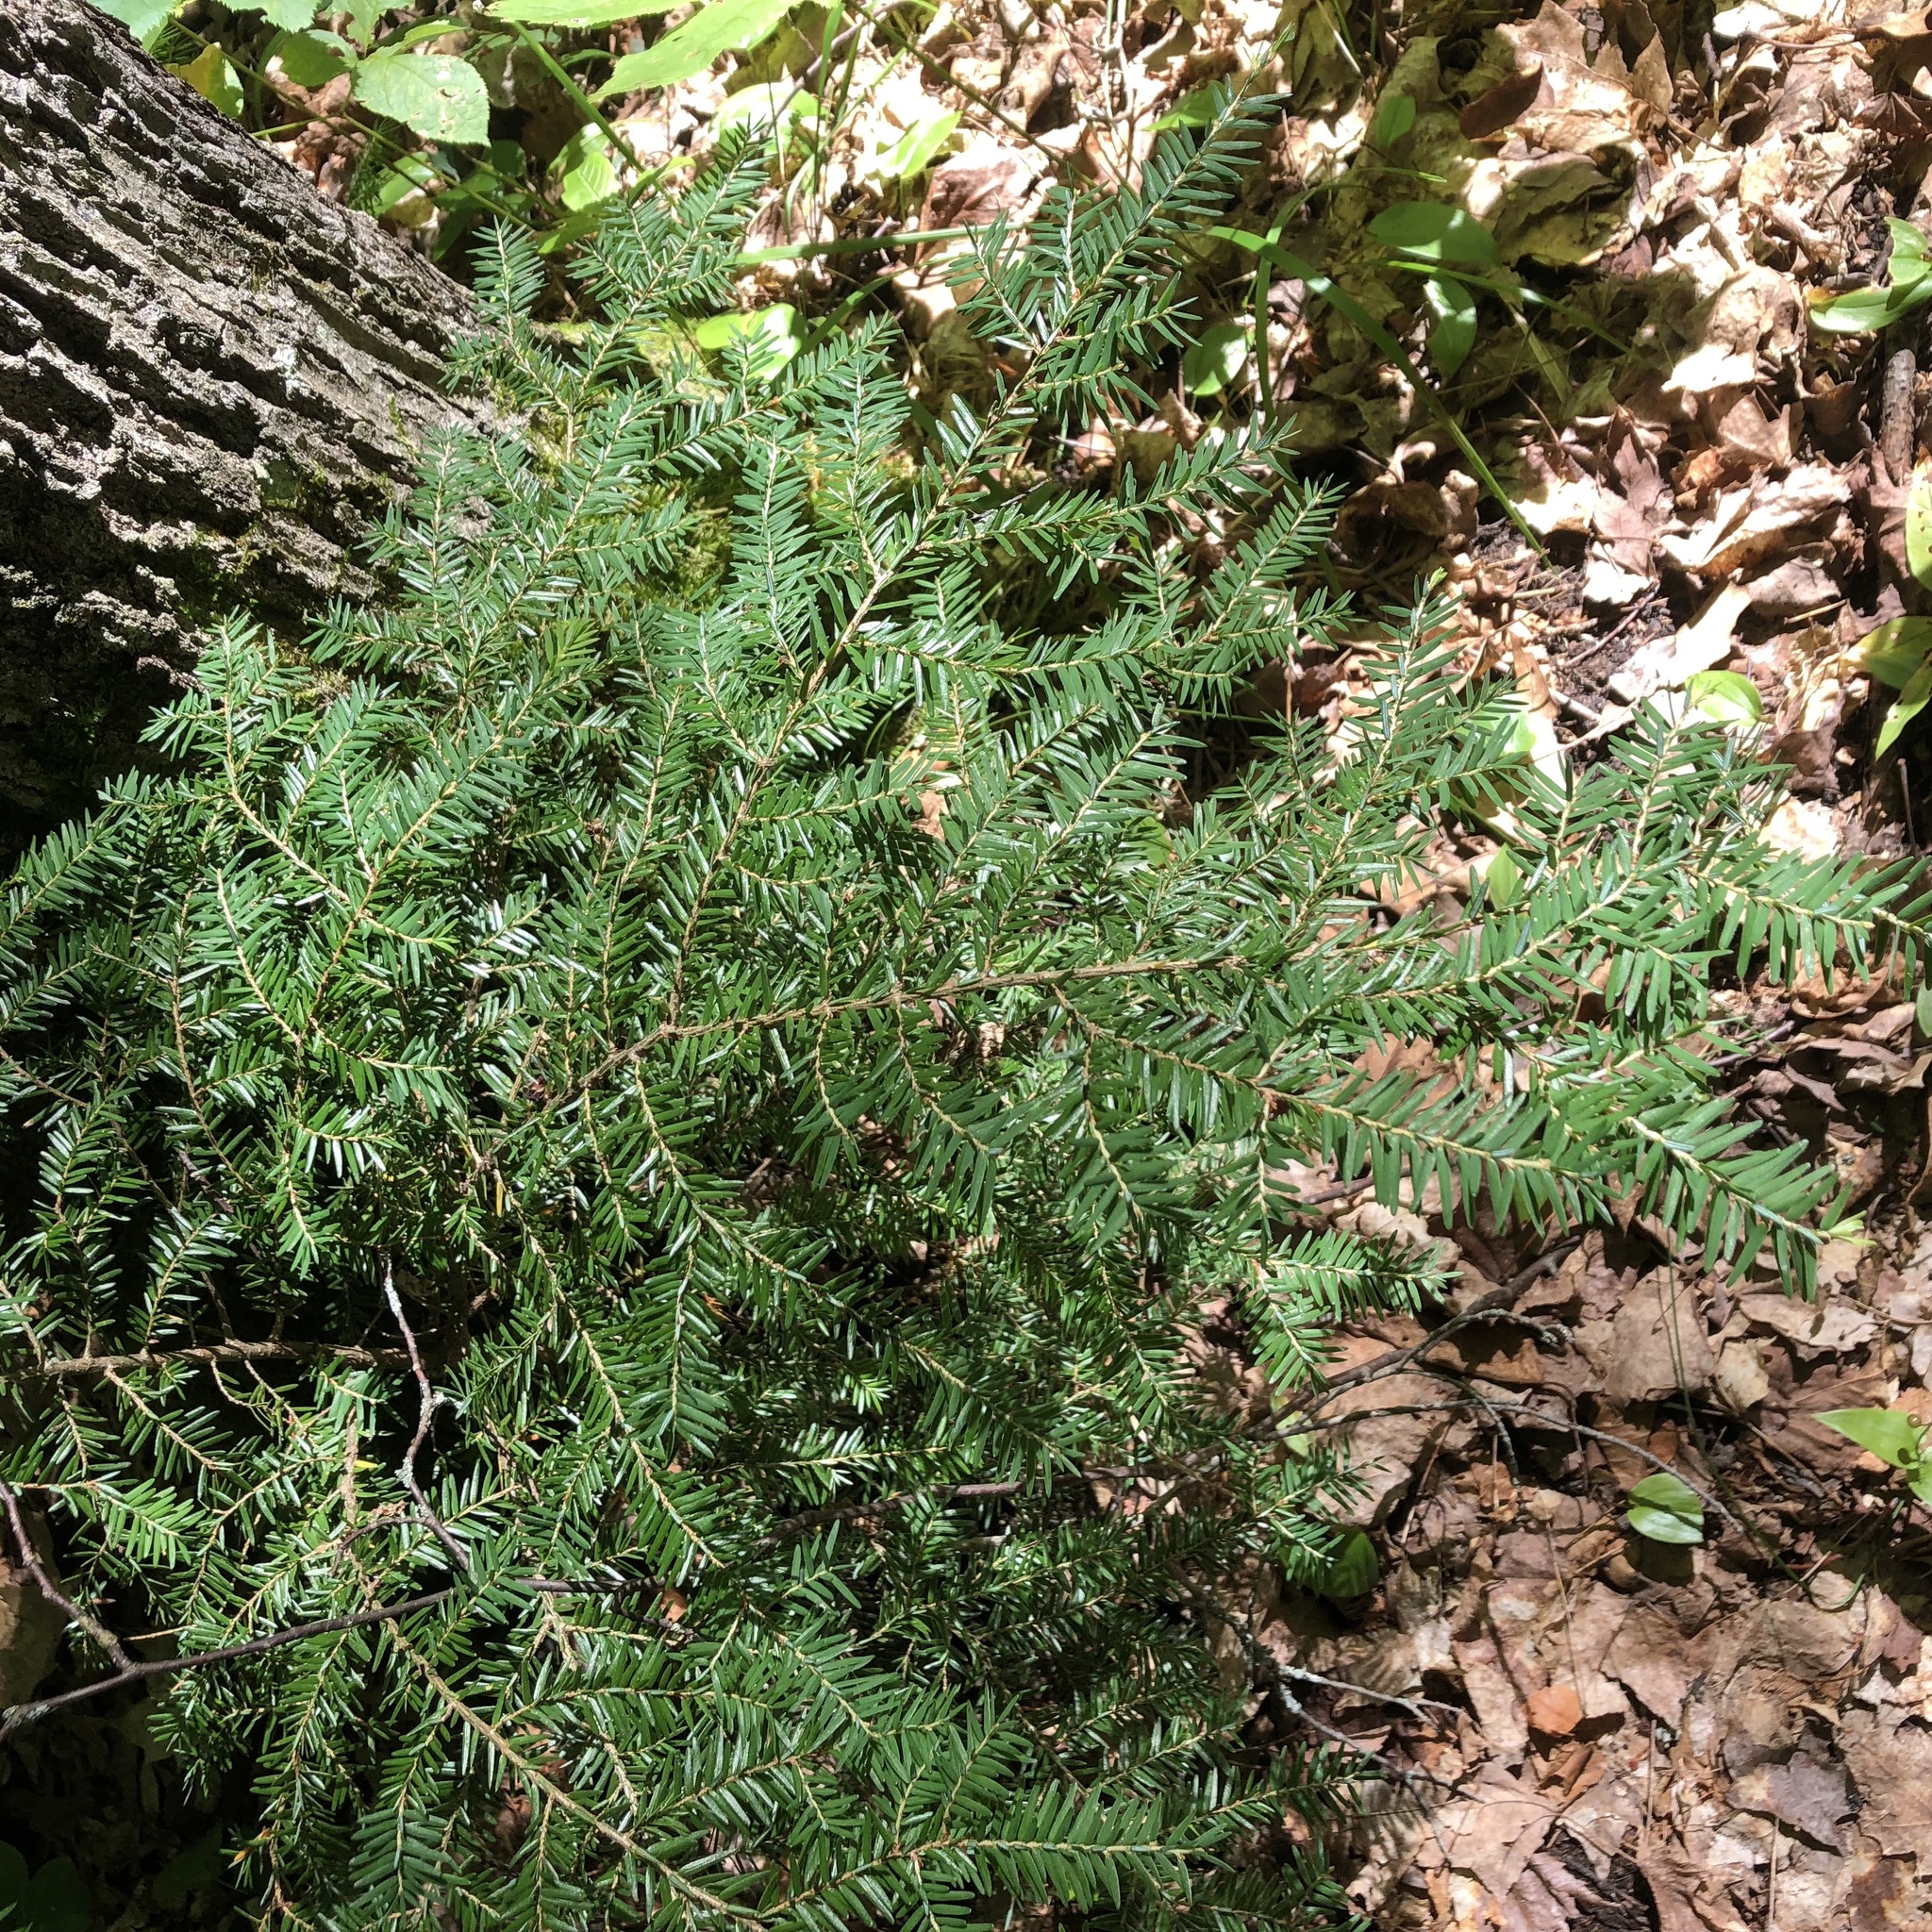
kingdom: Plantae
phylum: Tracheophyta
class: Pinopsida
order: Pinales
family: Pinaceae
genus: Tsuga
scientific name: Tsuga canadensis
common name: Eastern hemlock
